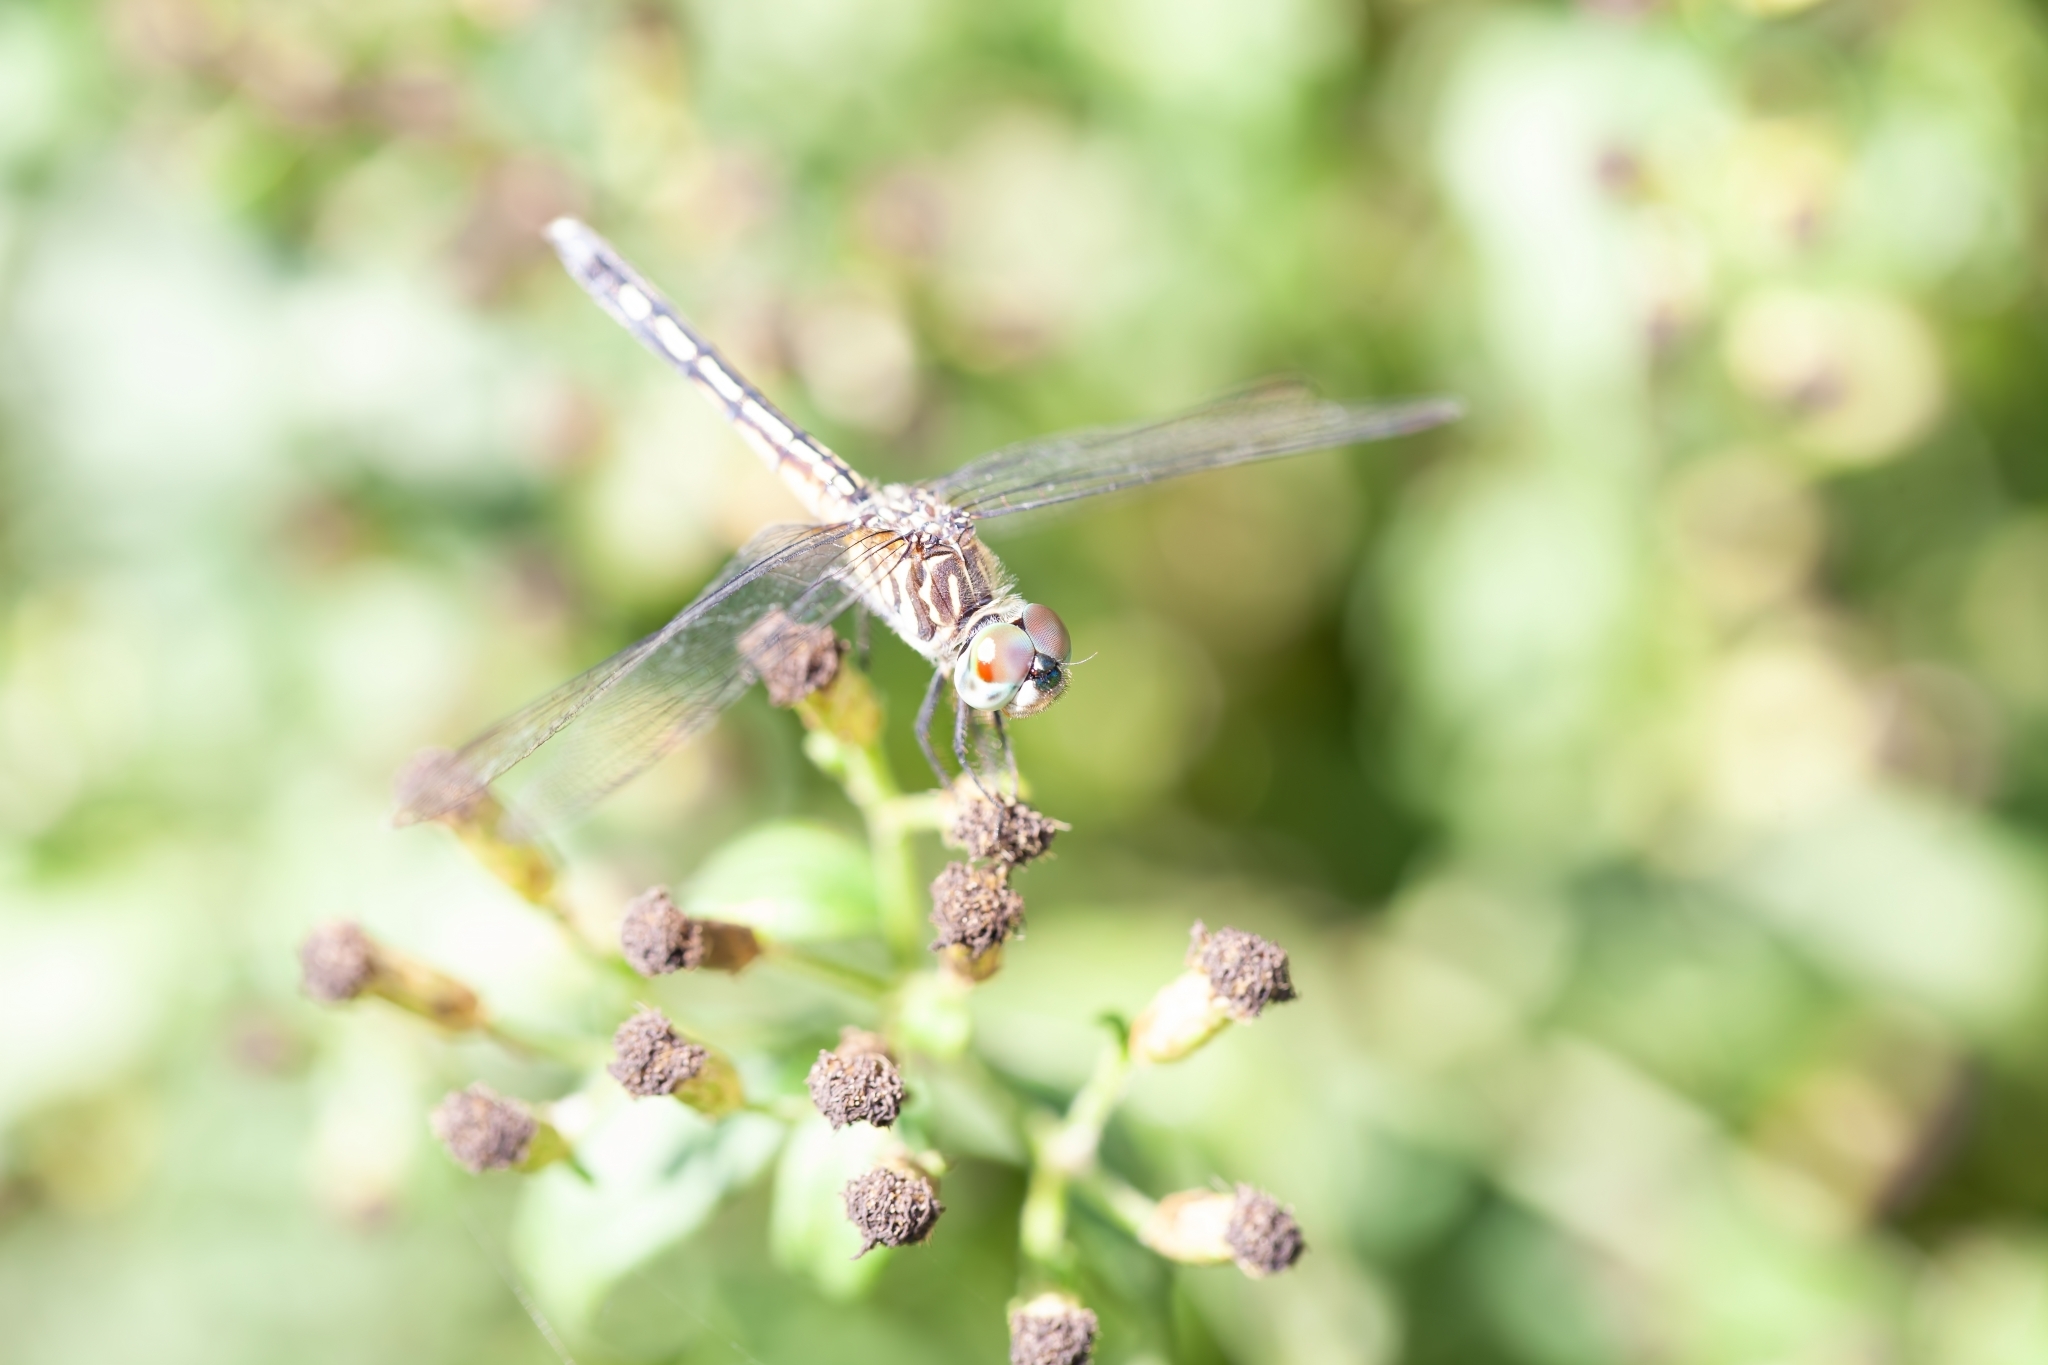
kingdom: Animalia
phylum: Arthropoda
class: Insecta
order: Odonata
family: Libellulidae
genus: Pachydiplax
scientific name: Pachydiplax longipennis
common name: Blue dasher
